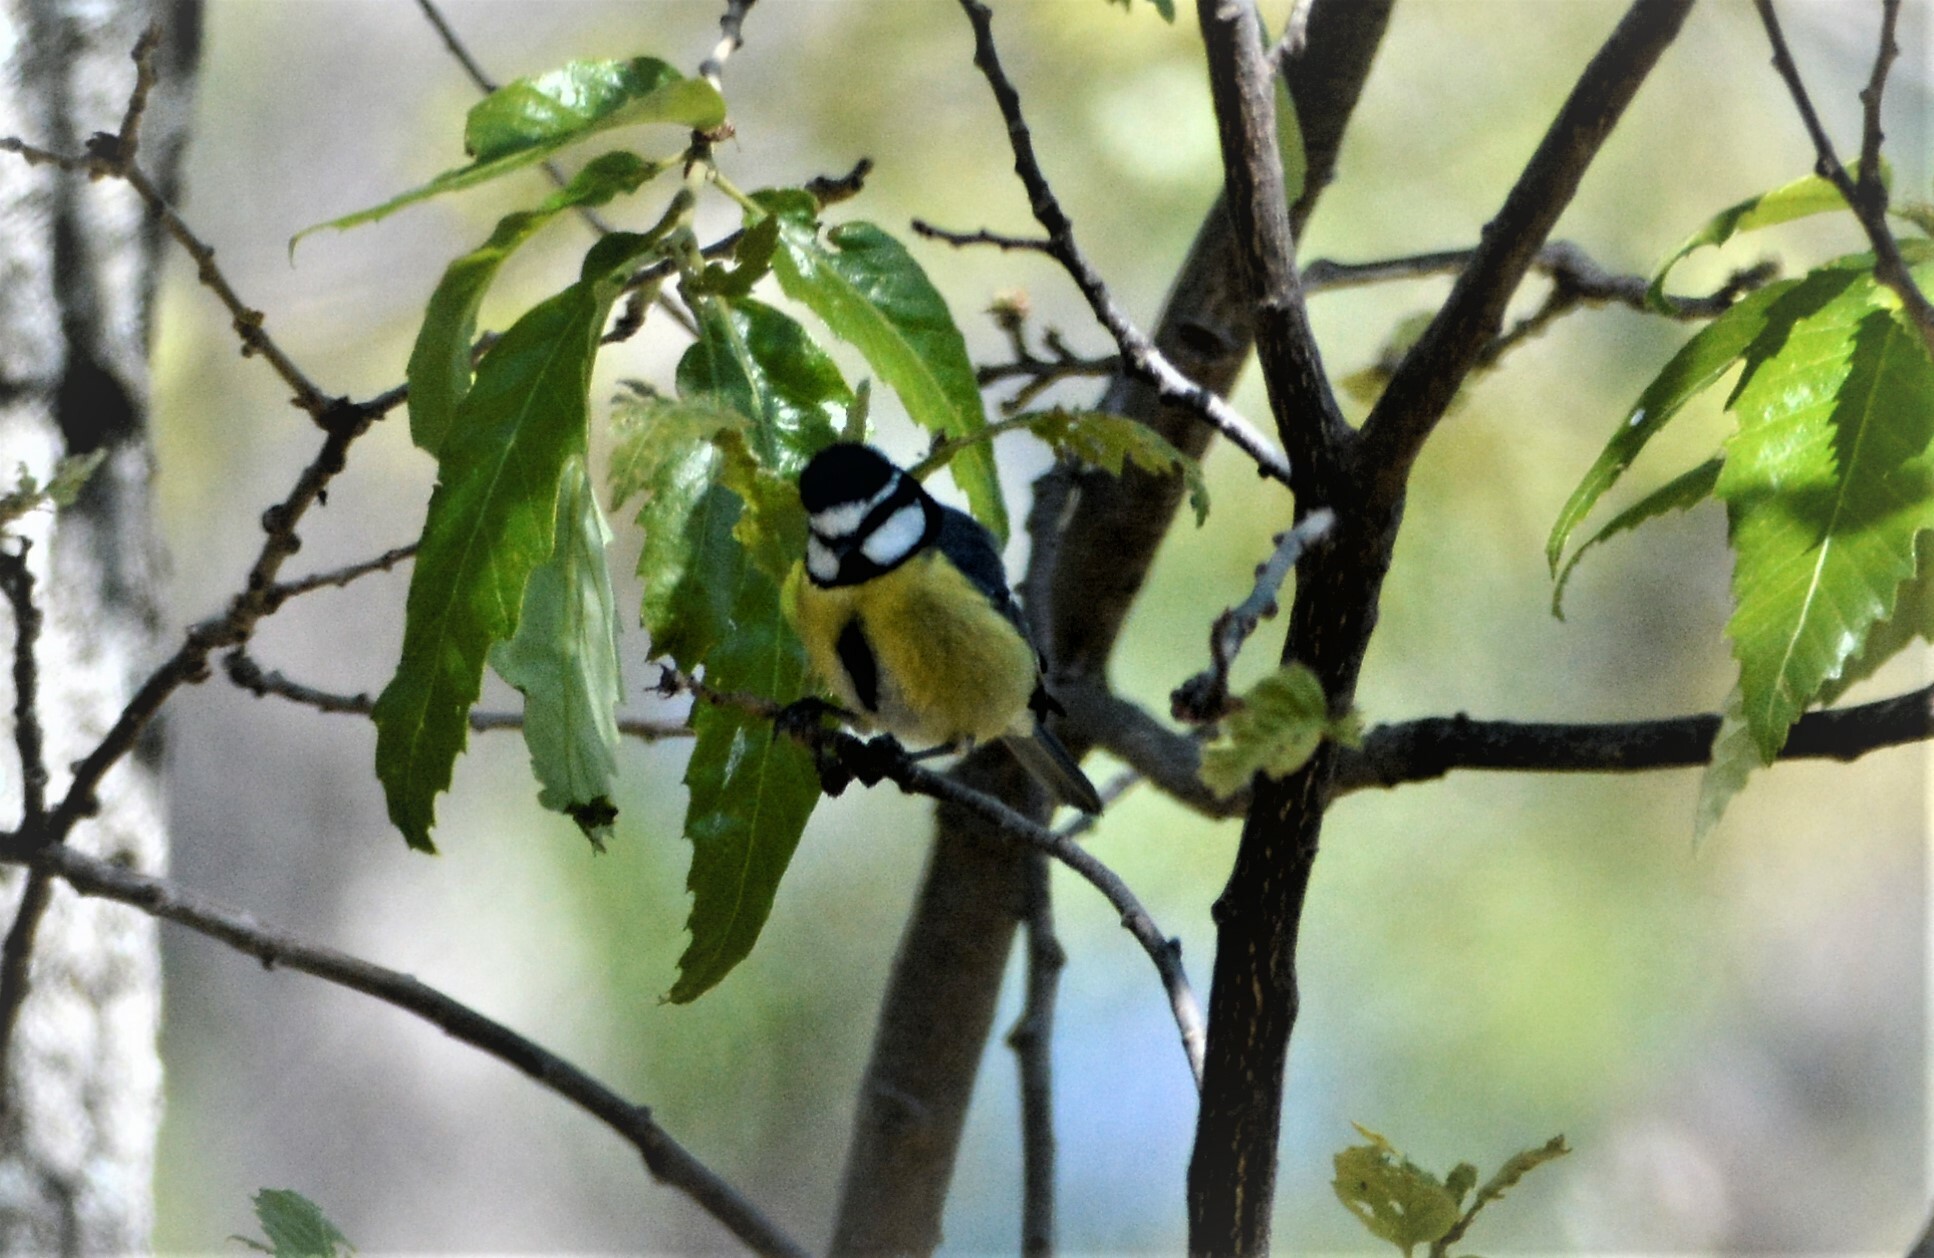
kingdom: Animalia
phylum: Chordata
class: Aves
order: Passeriformes
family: Paridae
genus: Cyanistes
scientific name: Cyanistes teneriffae
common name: African blue tit
